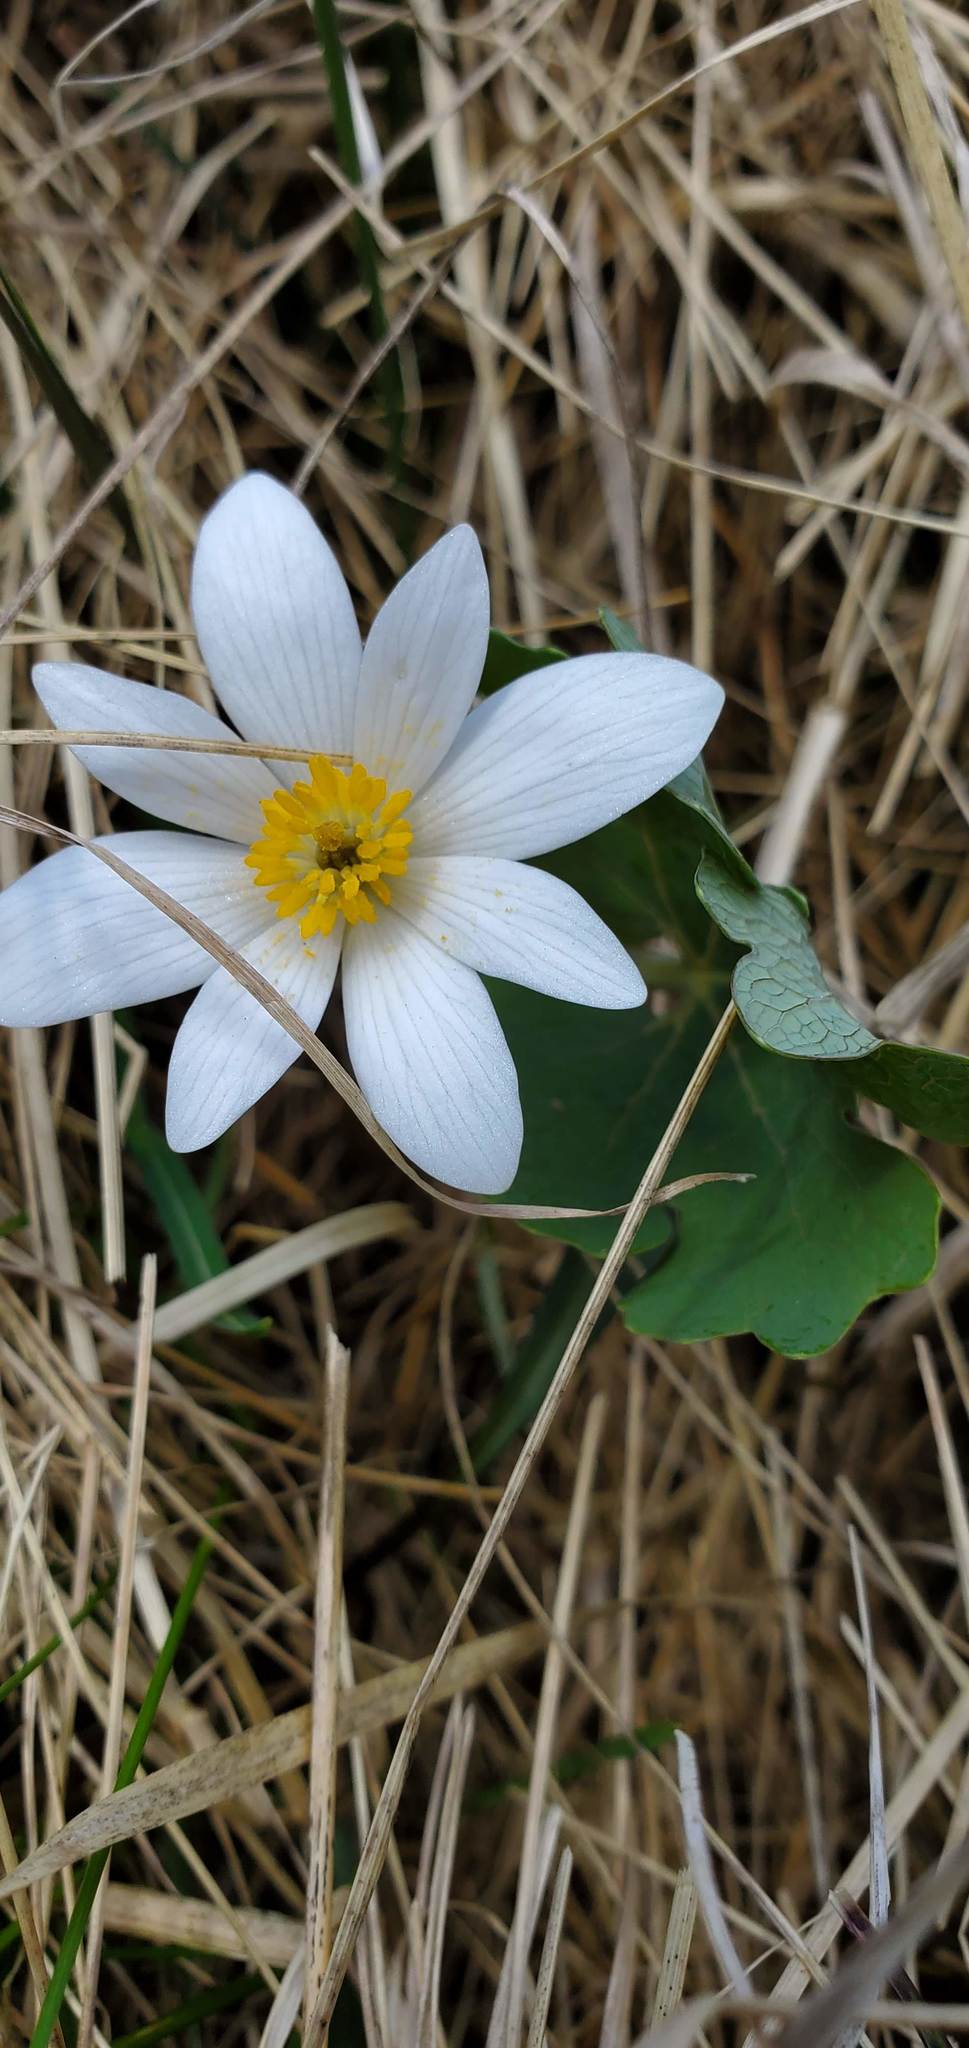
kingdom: Plantae
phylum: Tracheophyta
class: Magnoliopsida
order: Ranunculales
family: Papaveraceae
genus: Sanguinaria
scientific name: Sanguinaria canadensis
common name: Bloodroot
